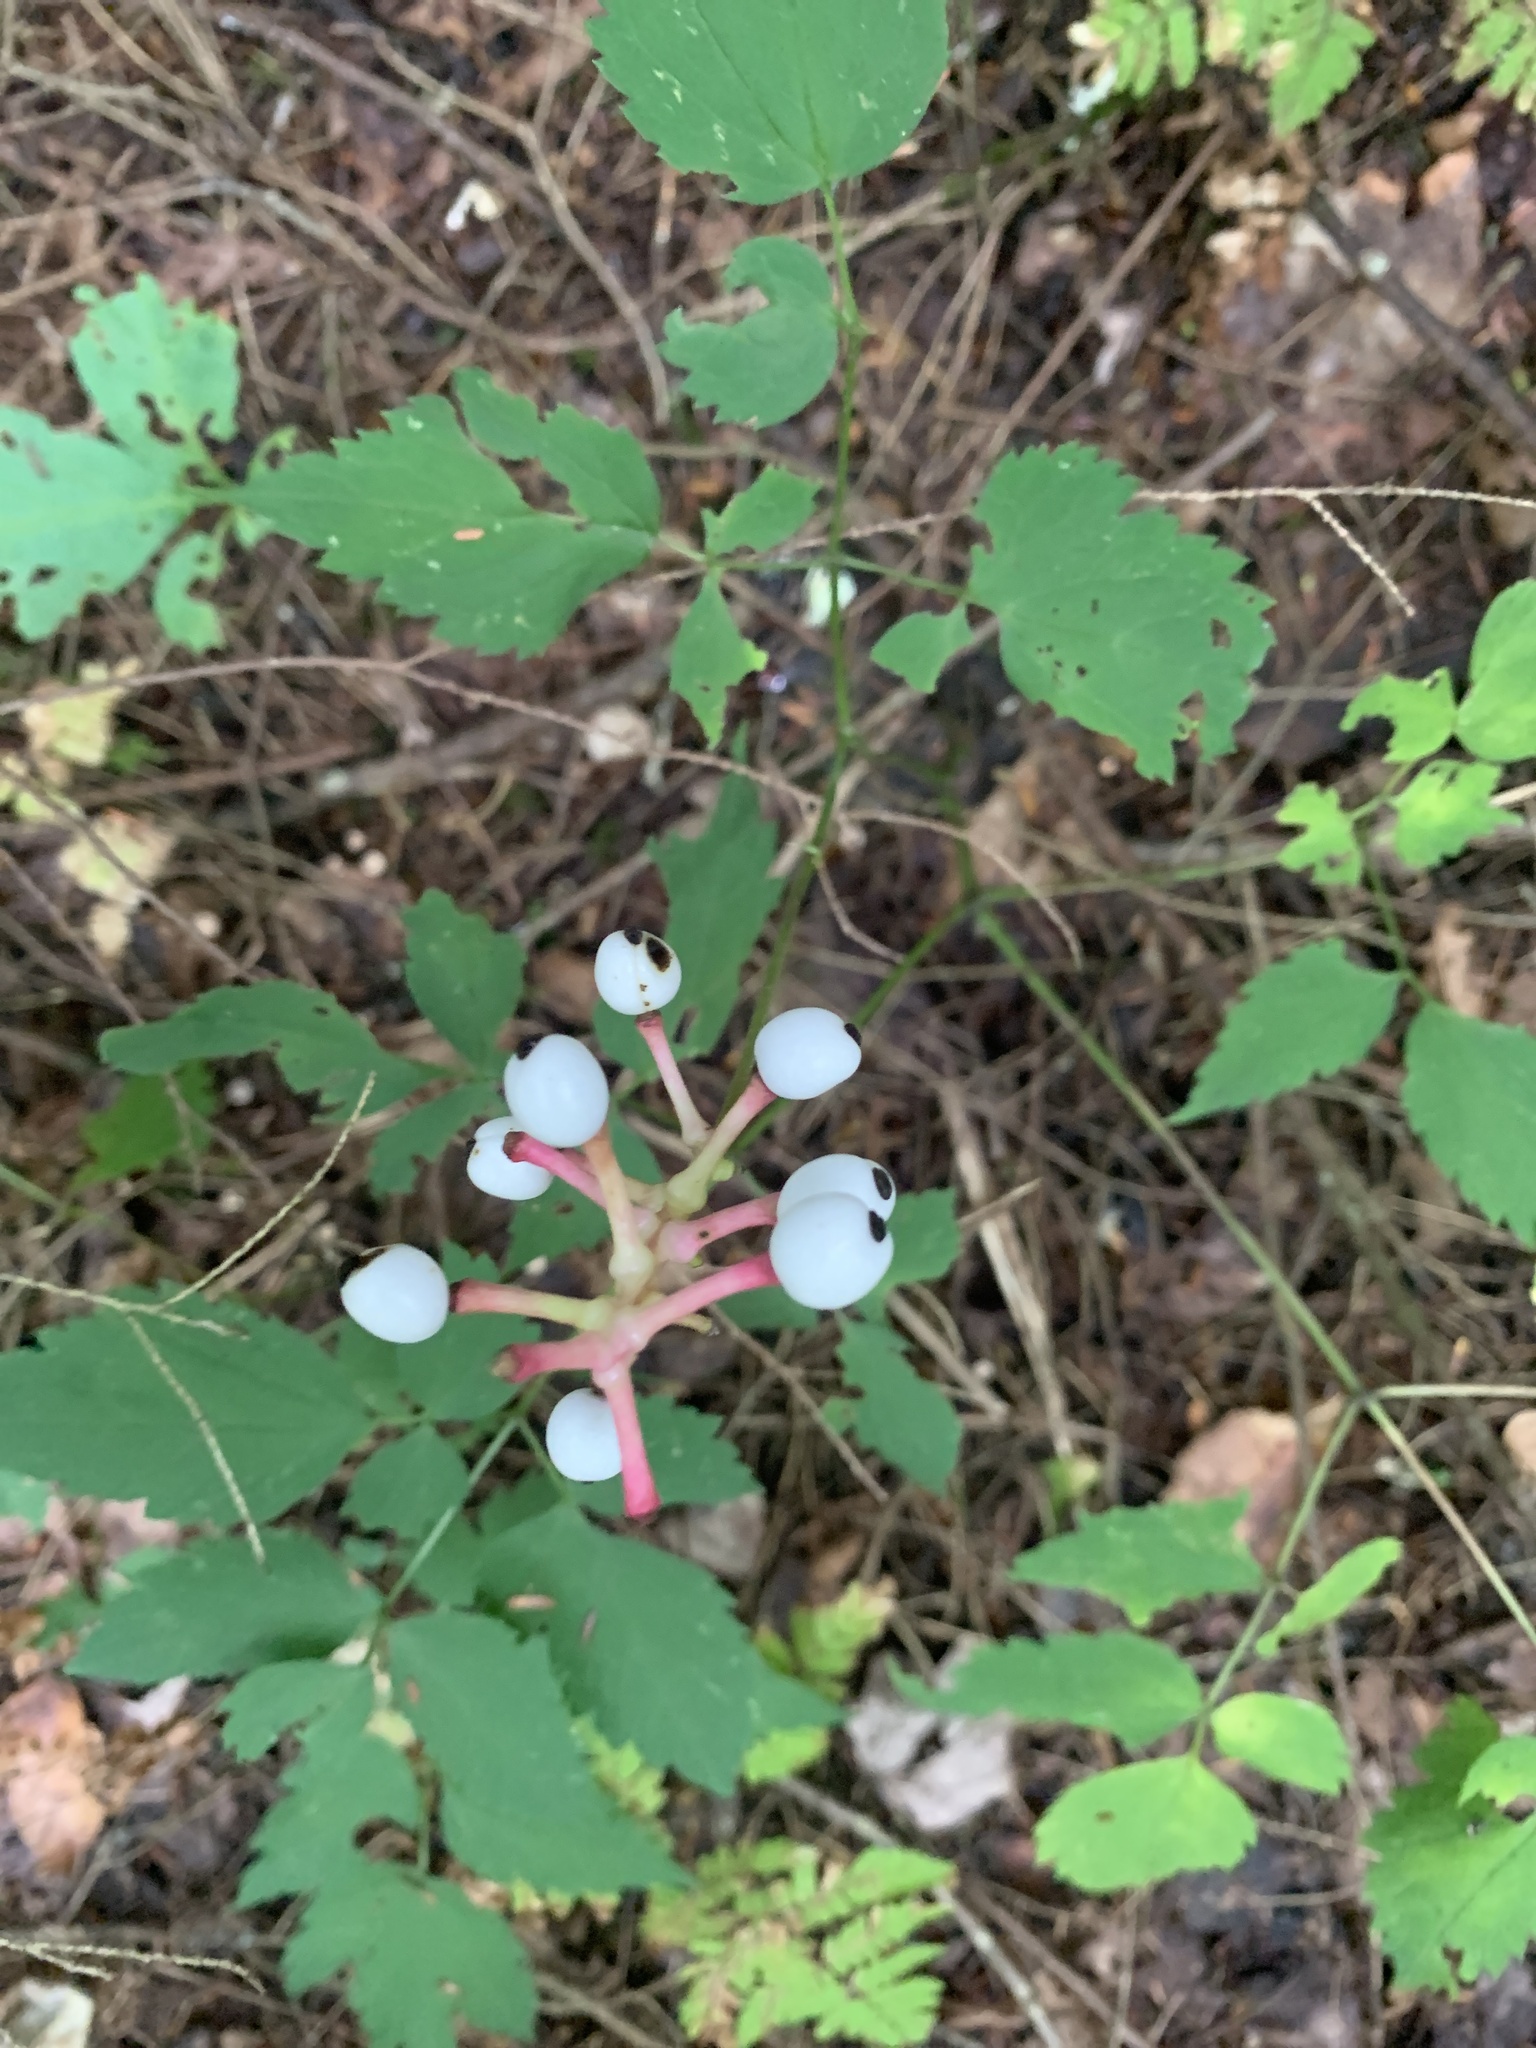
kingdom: Plantae
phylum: Tracheophyta
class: Magnoliopsida
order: Ranunculales
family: Ranunculaceae
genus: Actaea
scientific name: Actaea pachypoda
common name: Doll's-eyes
